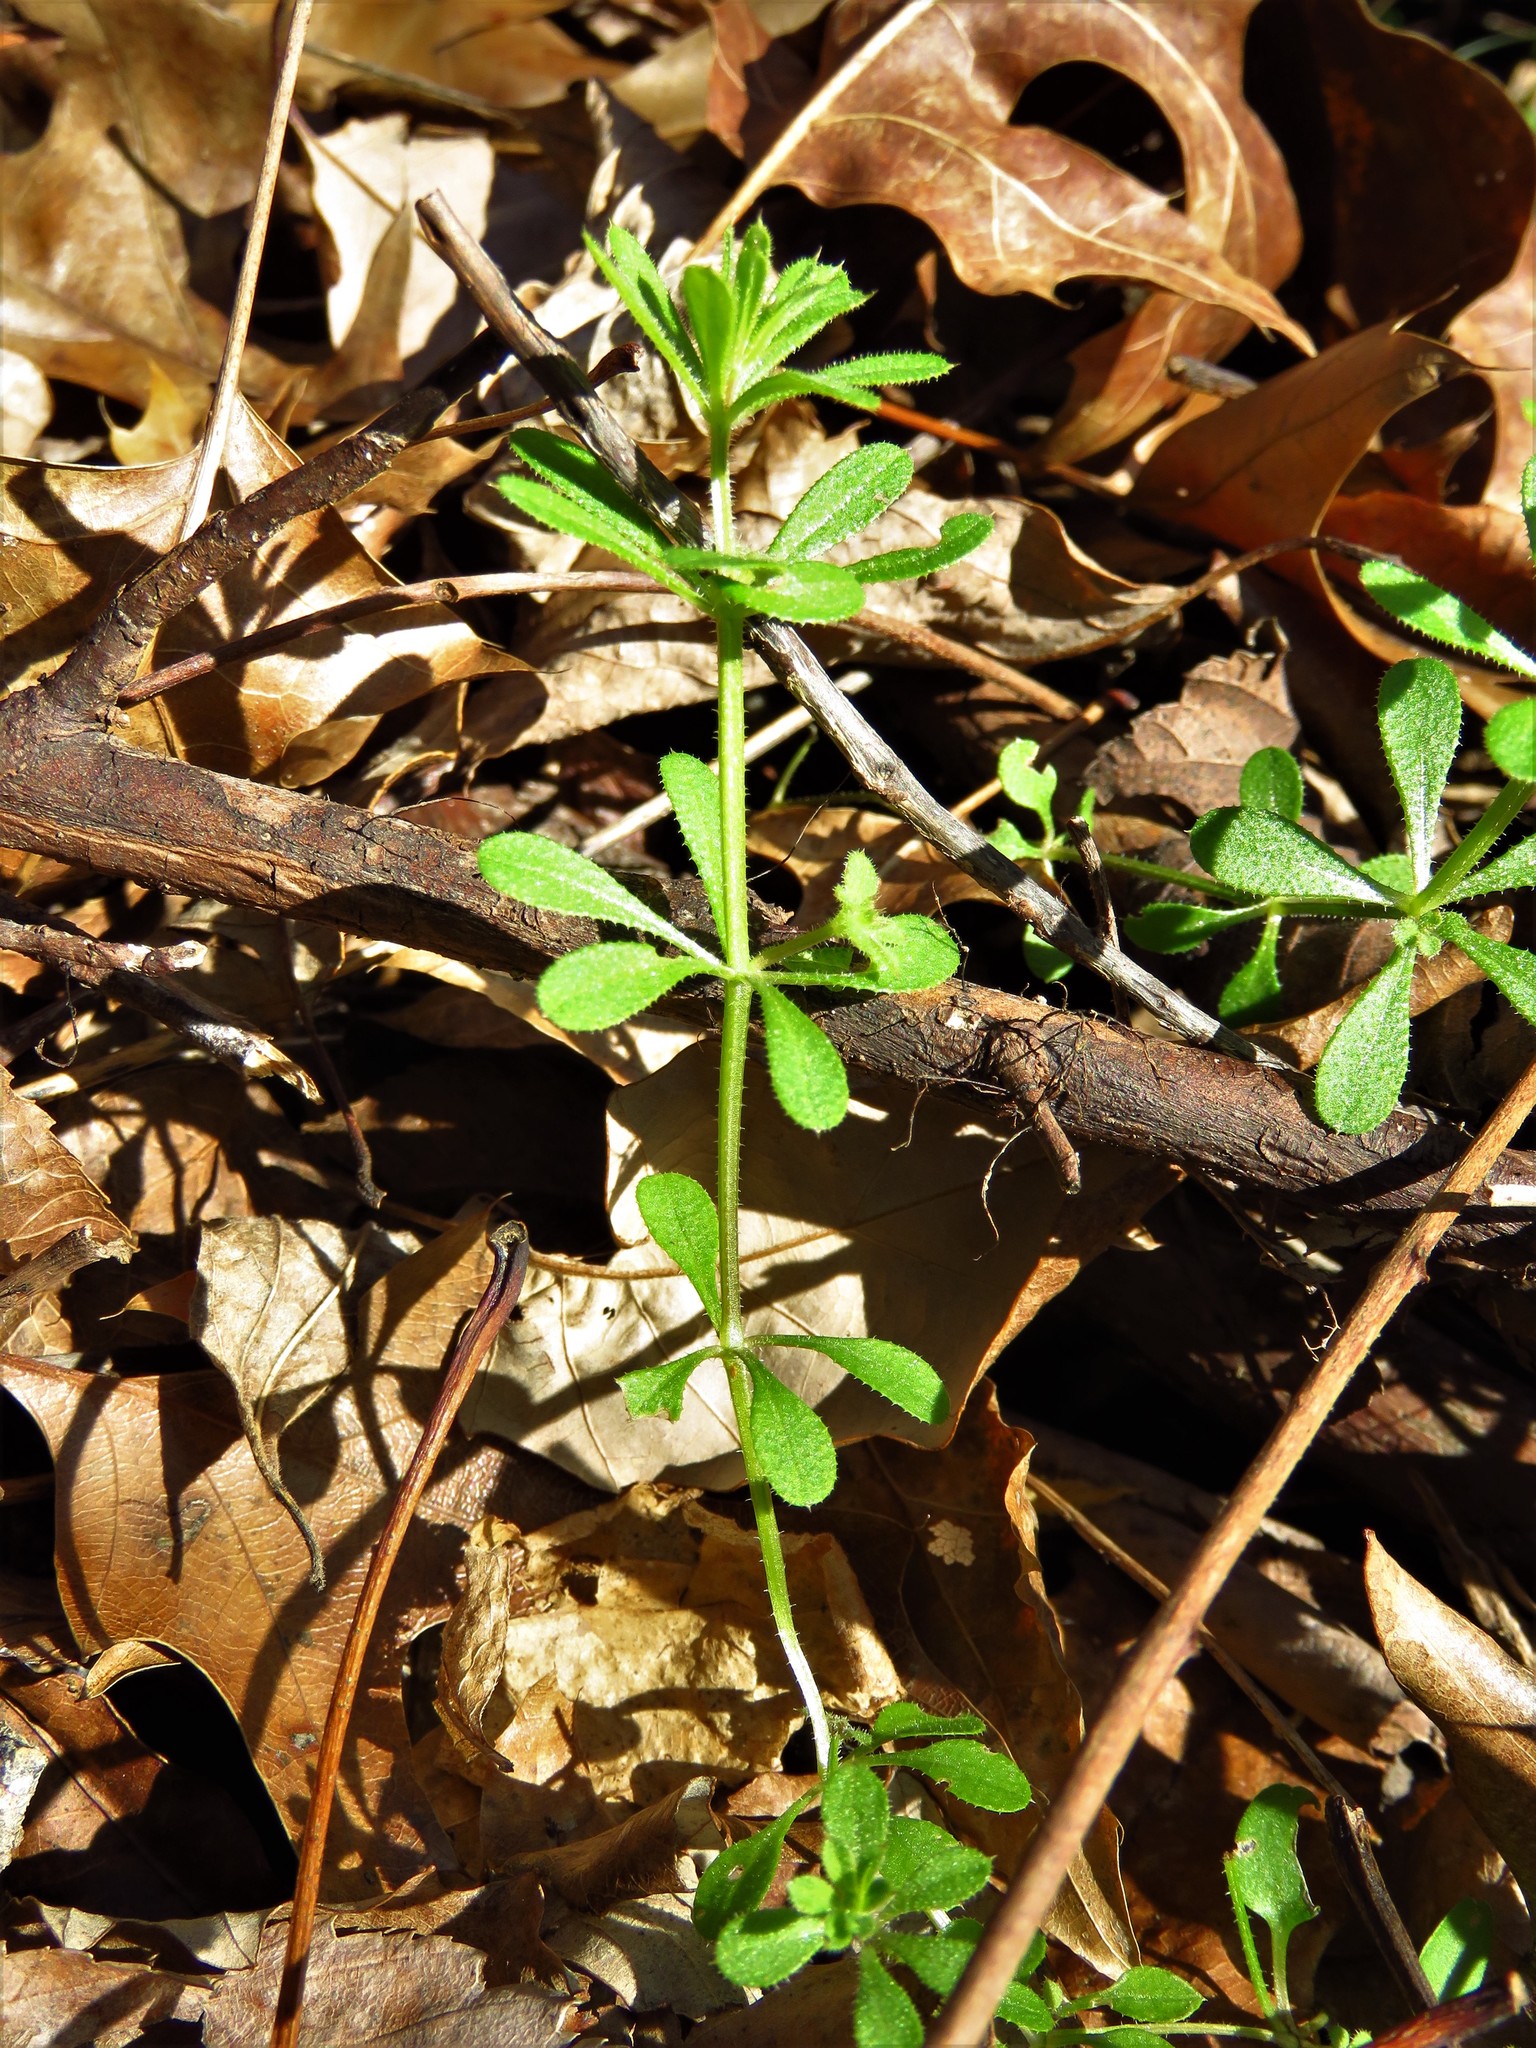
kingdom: Plantae
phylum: Tracheophyta
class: Magnoliopsida
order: Gentianales
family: Rubiaceae
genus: Galium
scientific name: Galium aparine
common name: Cleavers
